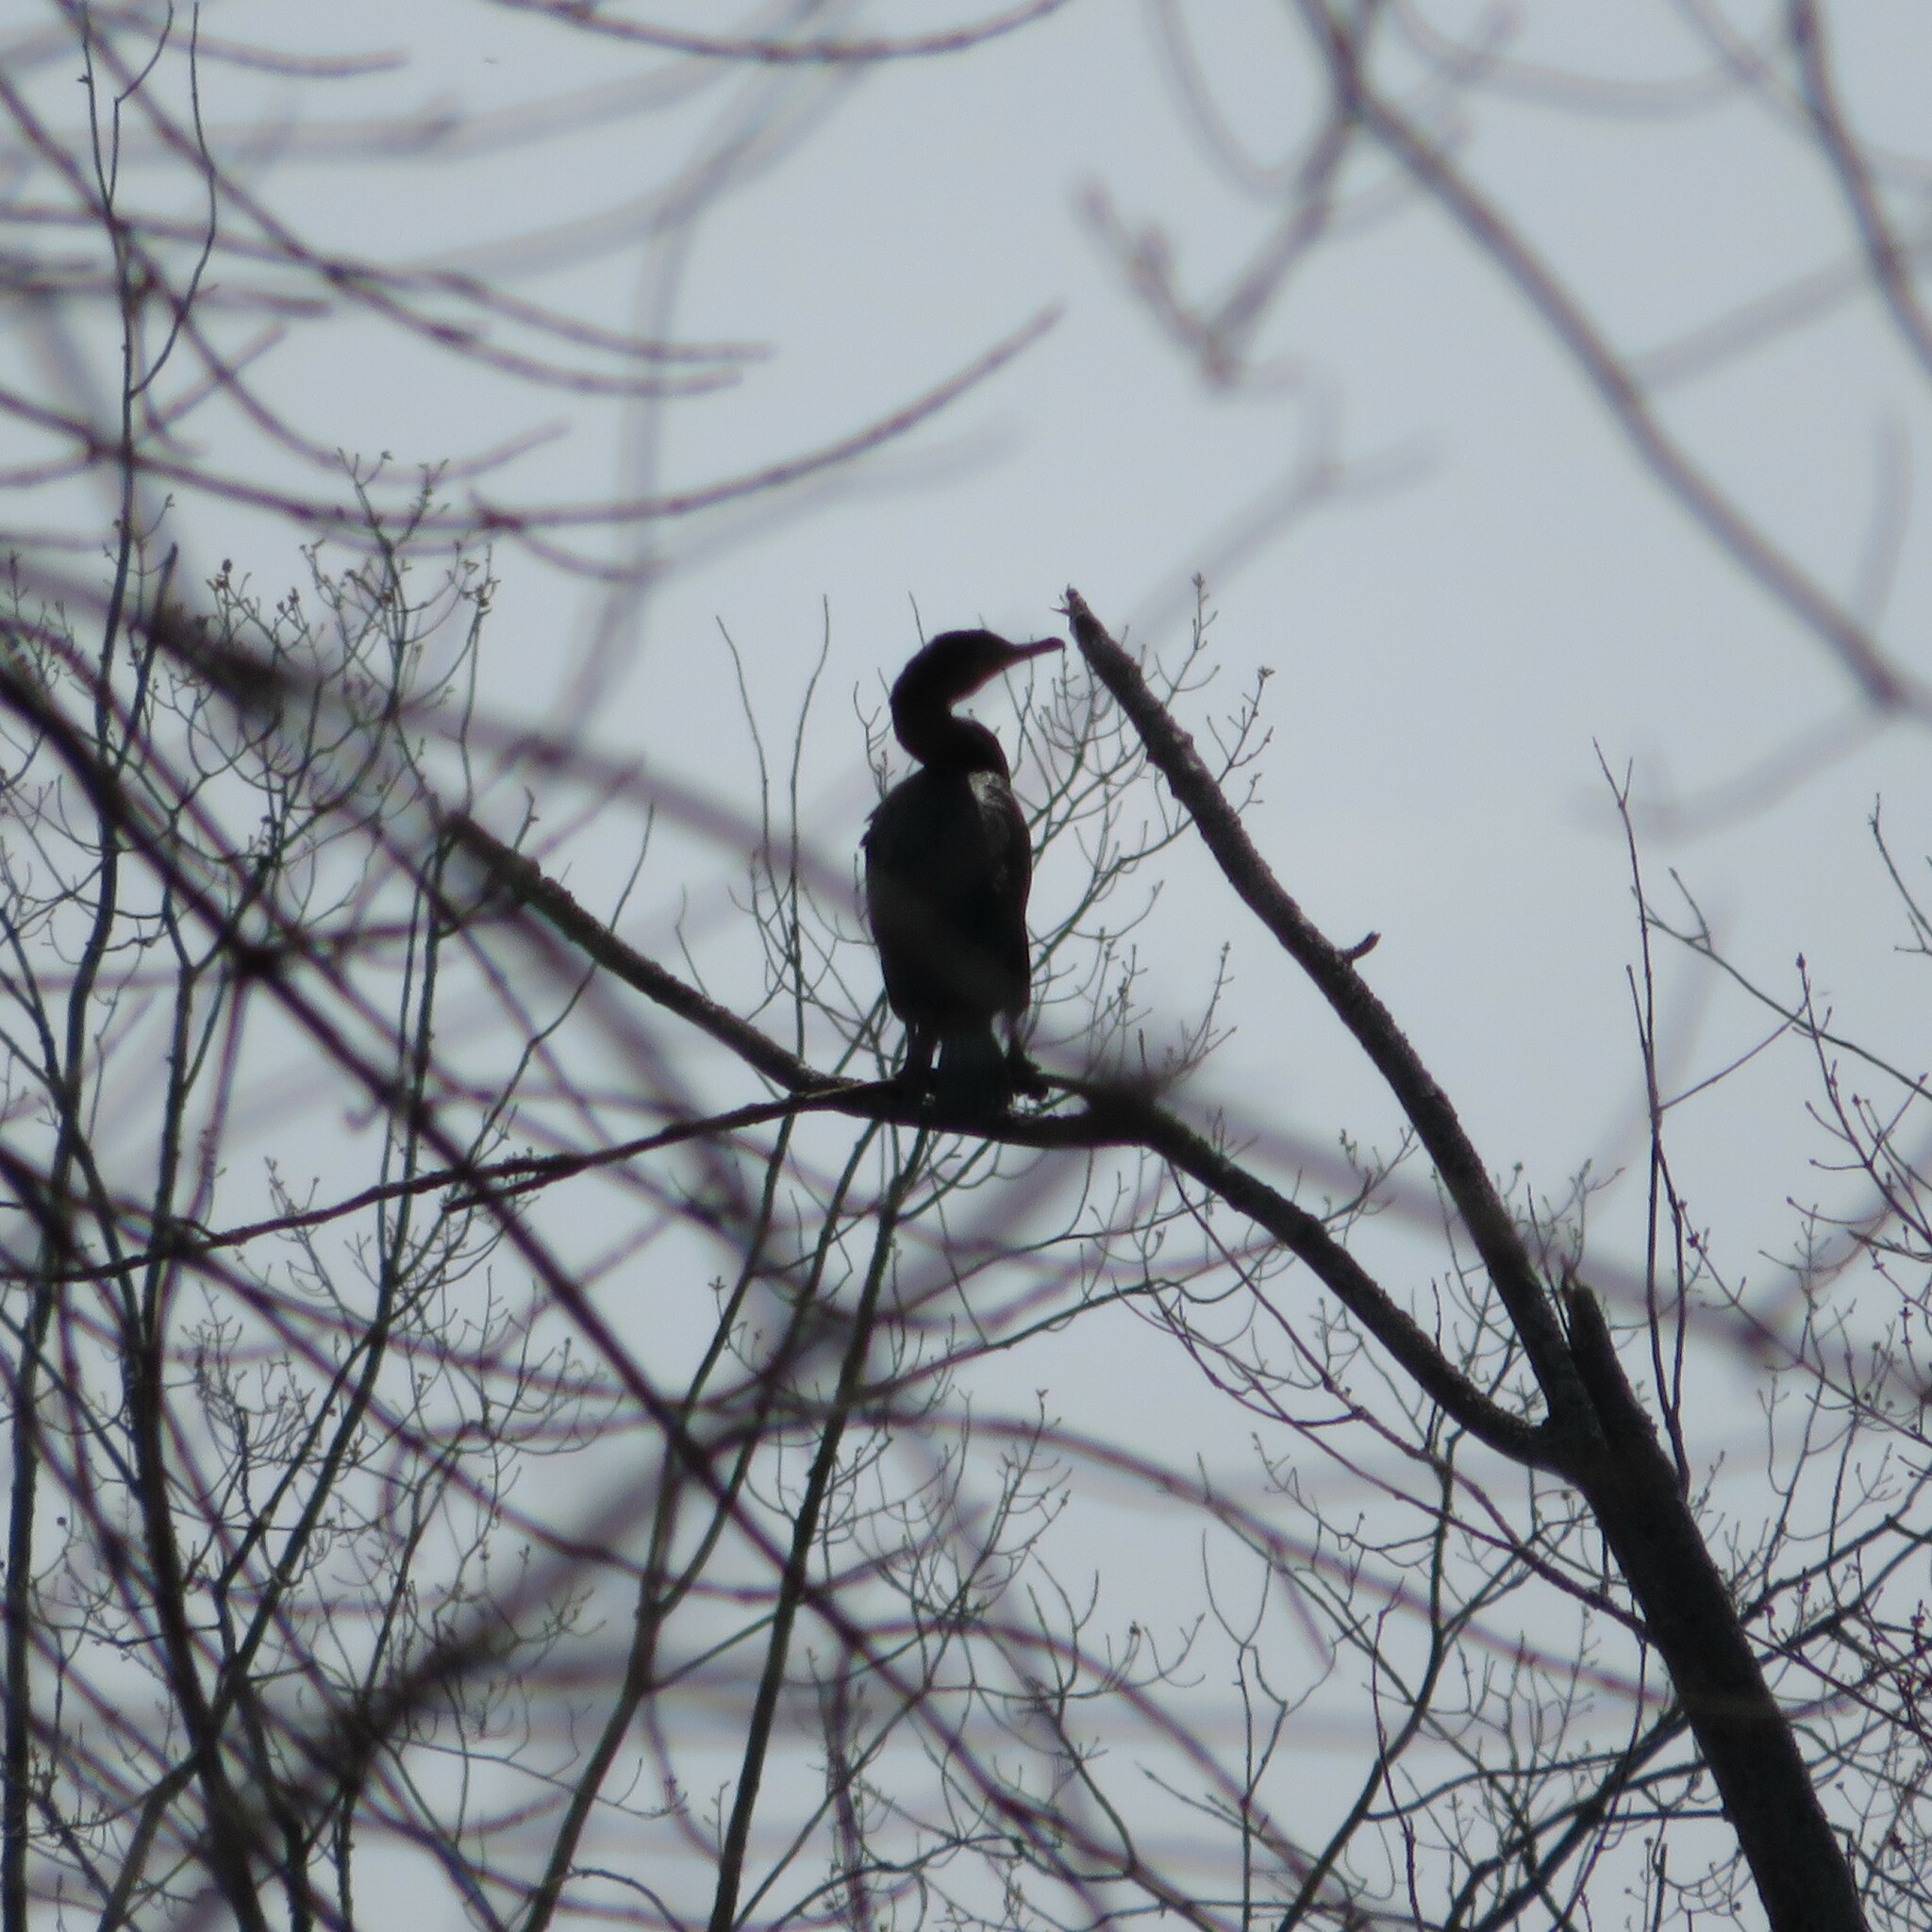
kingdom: Animalia
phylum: Chordata
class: Aves
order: Suliformes
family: Phalacrocoracidae
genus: Phalacrocorax
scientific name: Phalacrocorax auritus
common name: Double-crested cormorant
